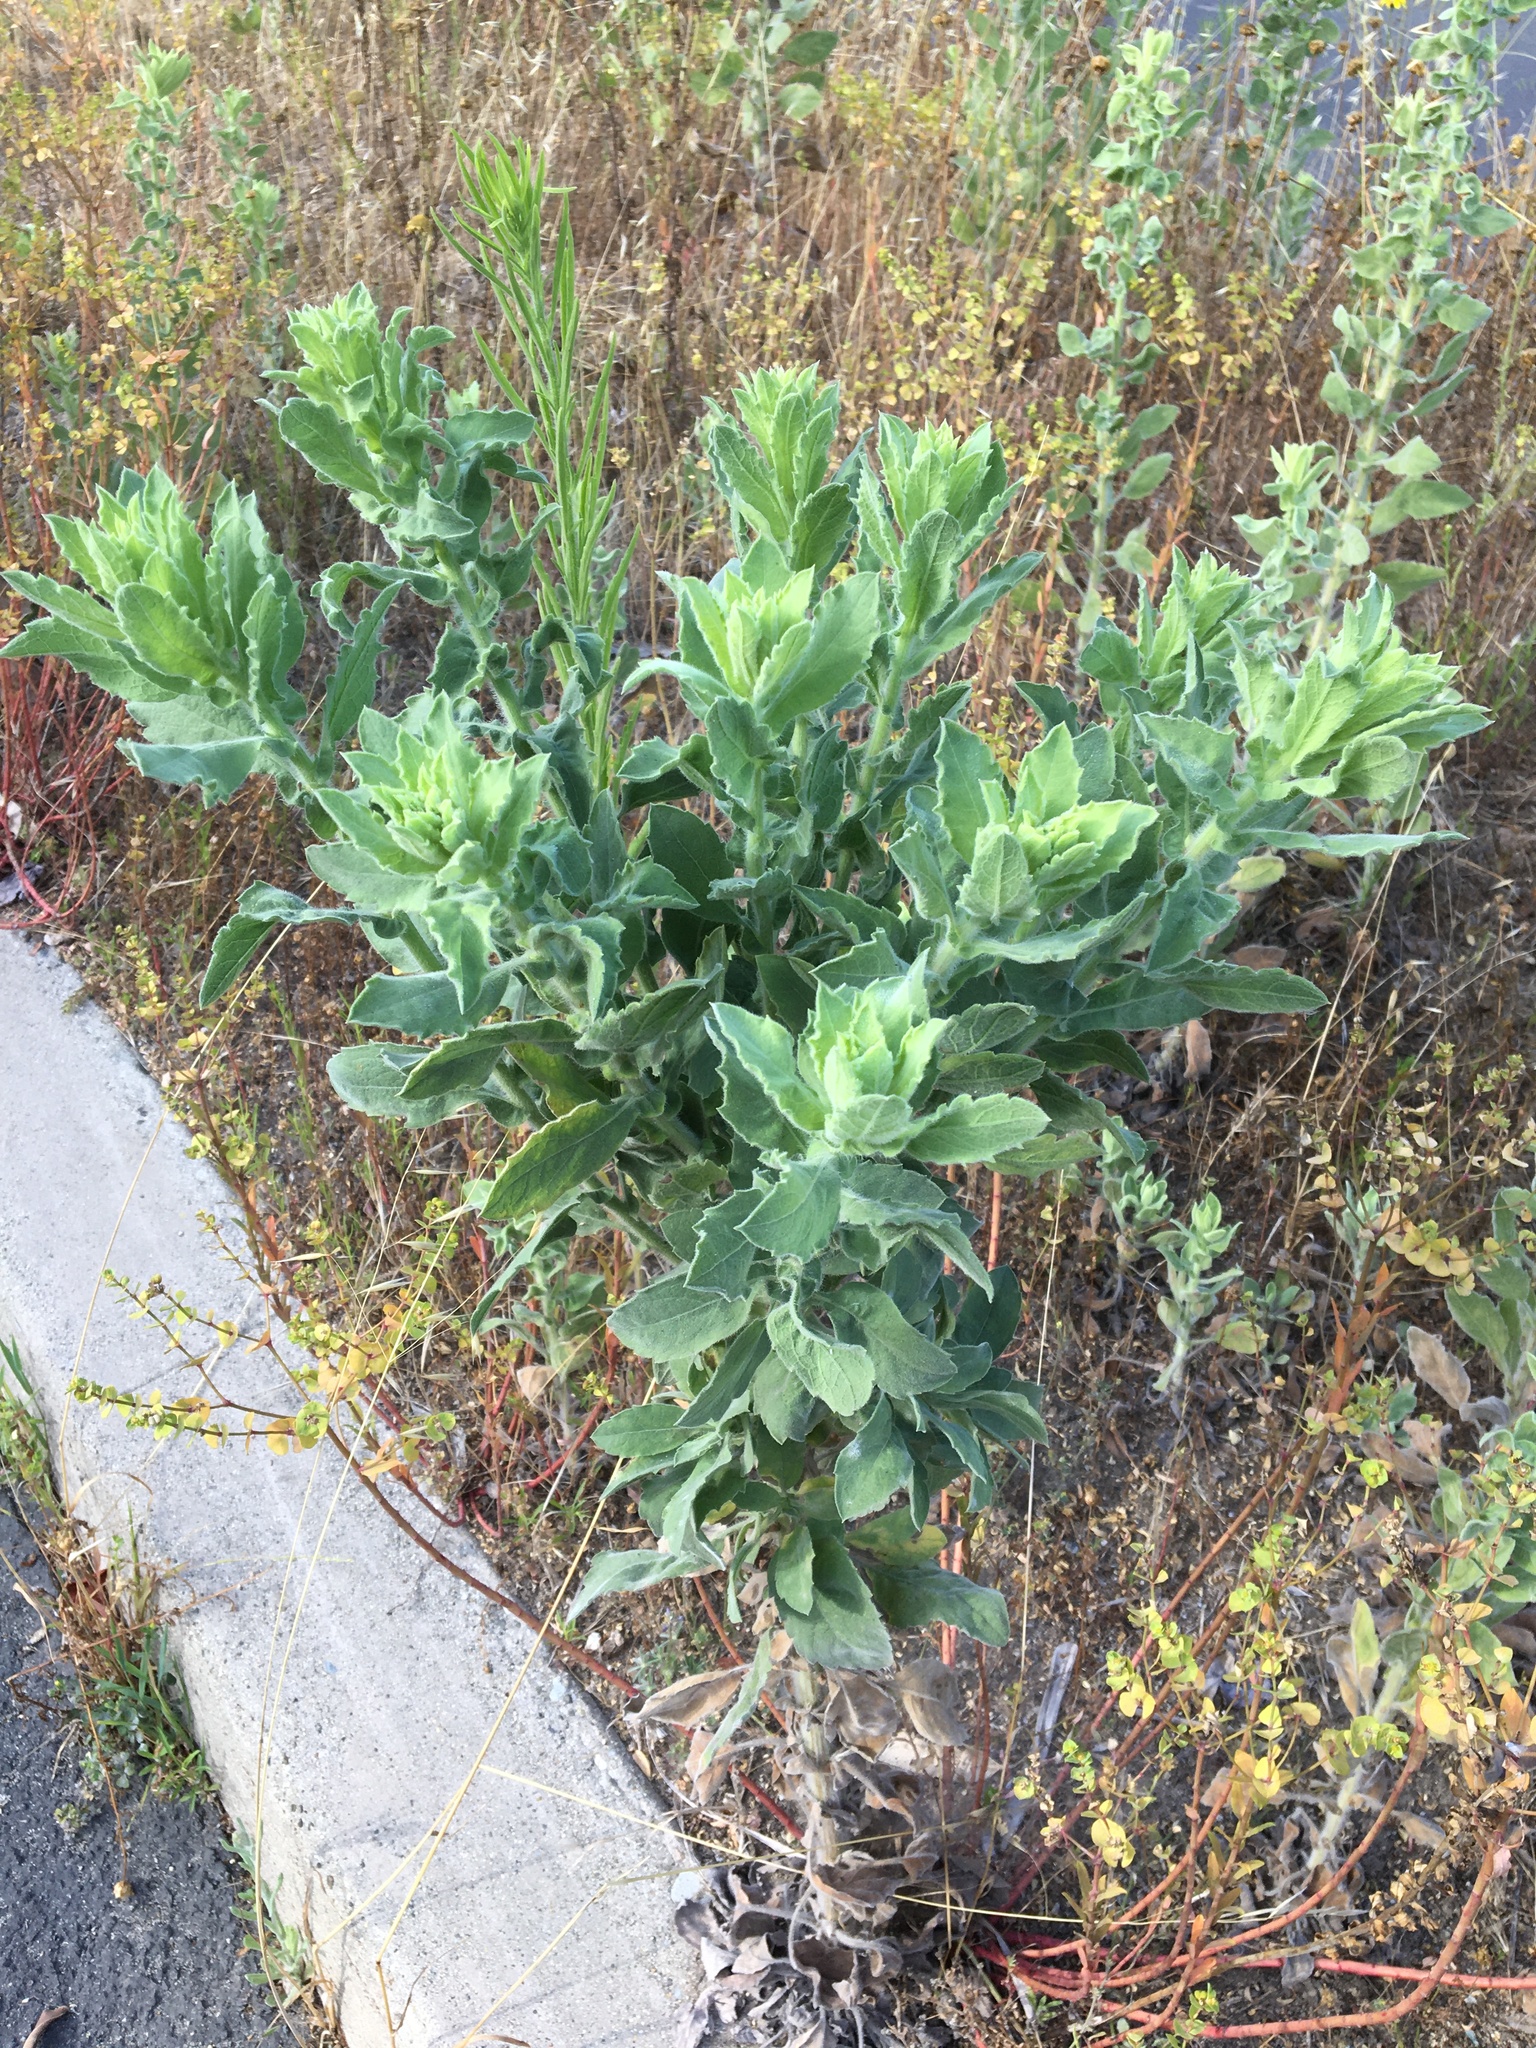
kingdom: Plantae
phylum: Tracheophyta
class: Magnoliopsida
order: Asterales
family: Asteraceae
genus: Heterotheca
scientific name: Heterotheca grandiflora
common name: Telegraphweed
